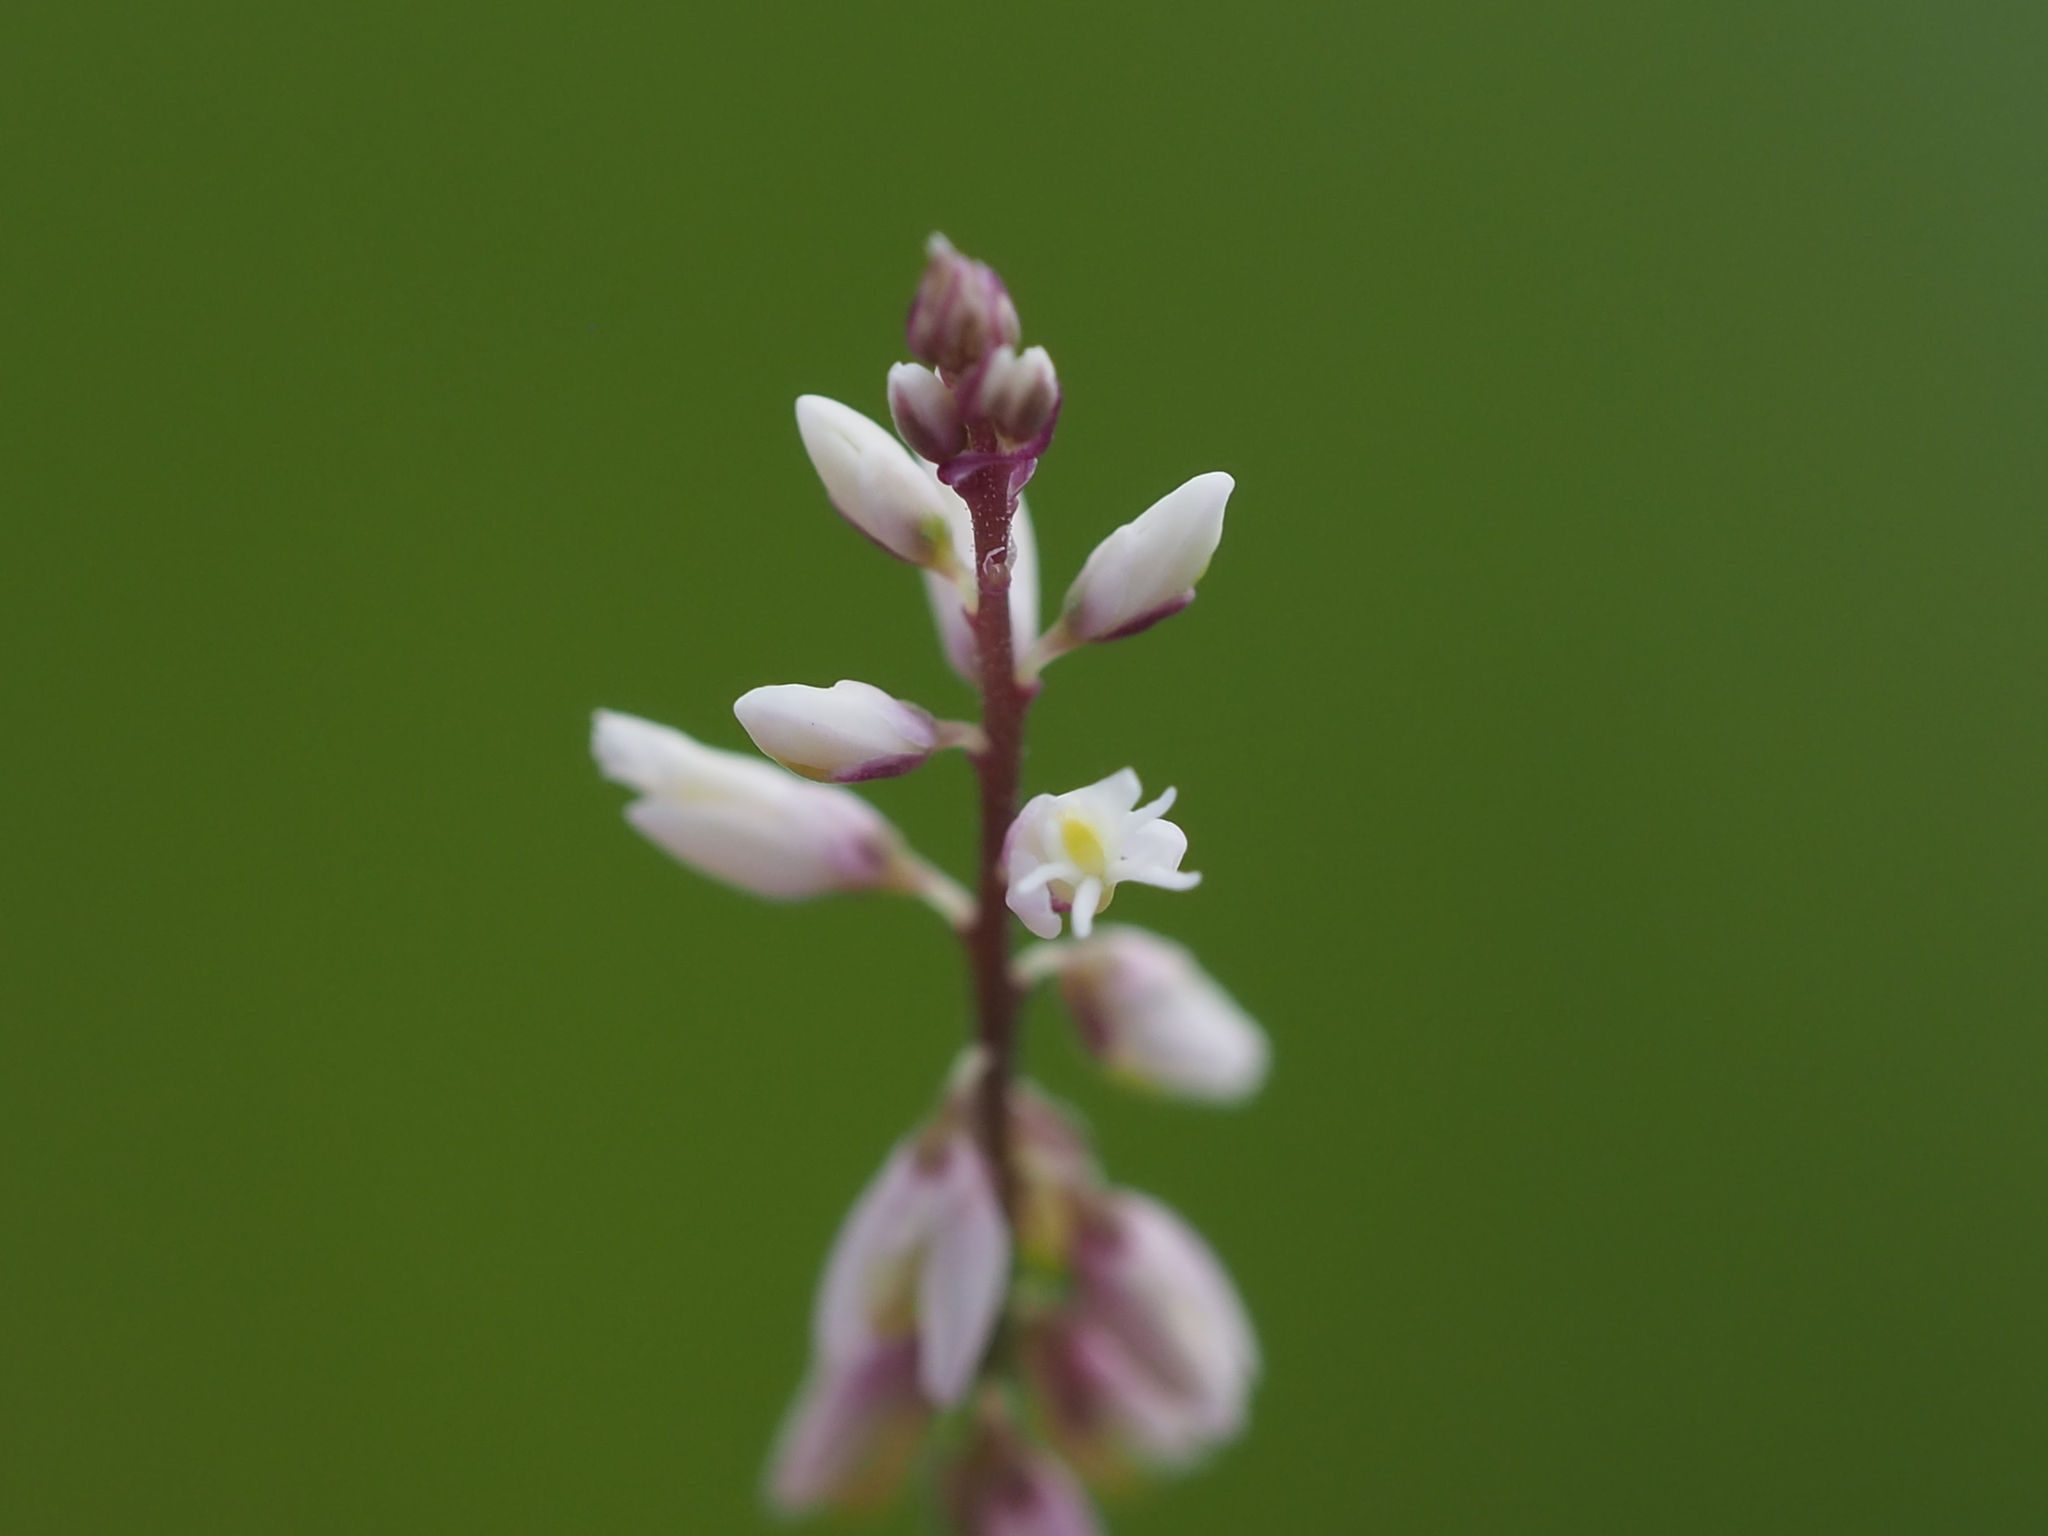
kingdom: Plantae
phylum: Tracheophyta
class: Magnoliopsida
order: Fabales
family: Polygalaceae
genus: Polygala
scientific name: Polygala paniculata
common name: Orosne
